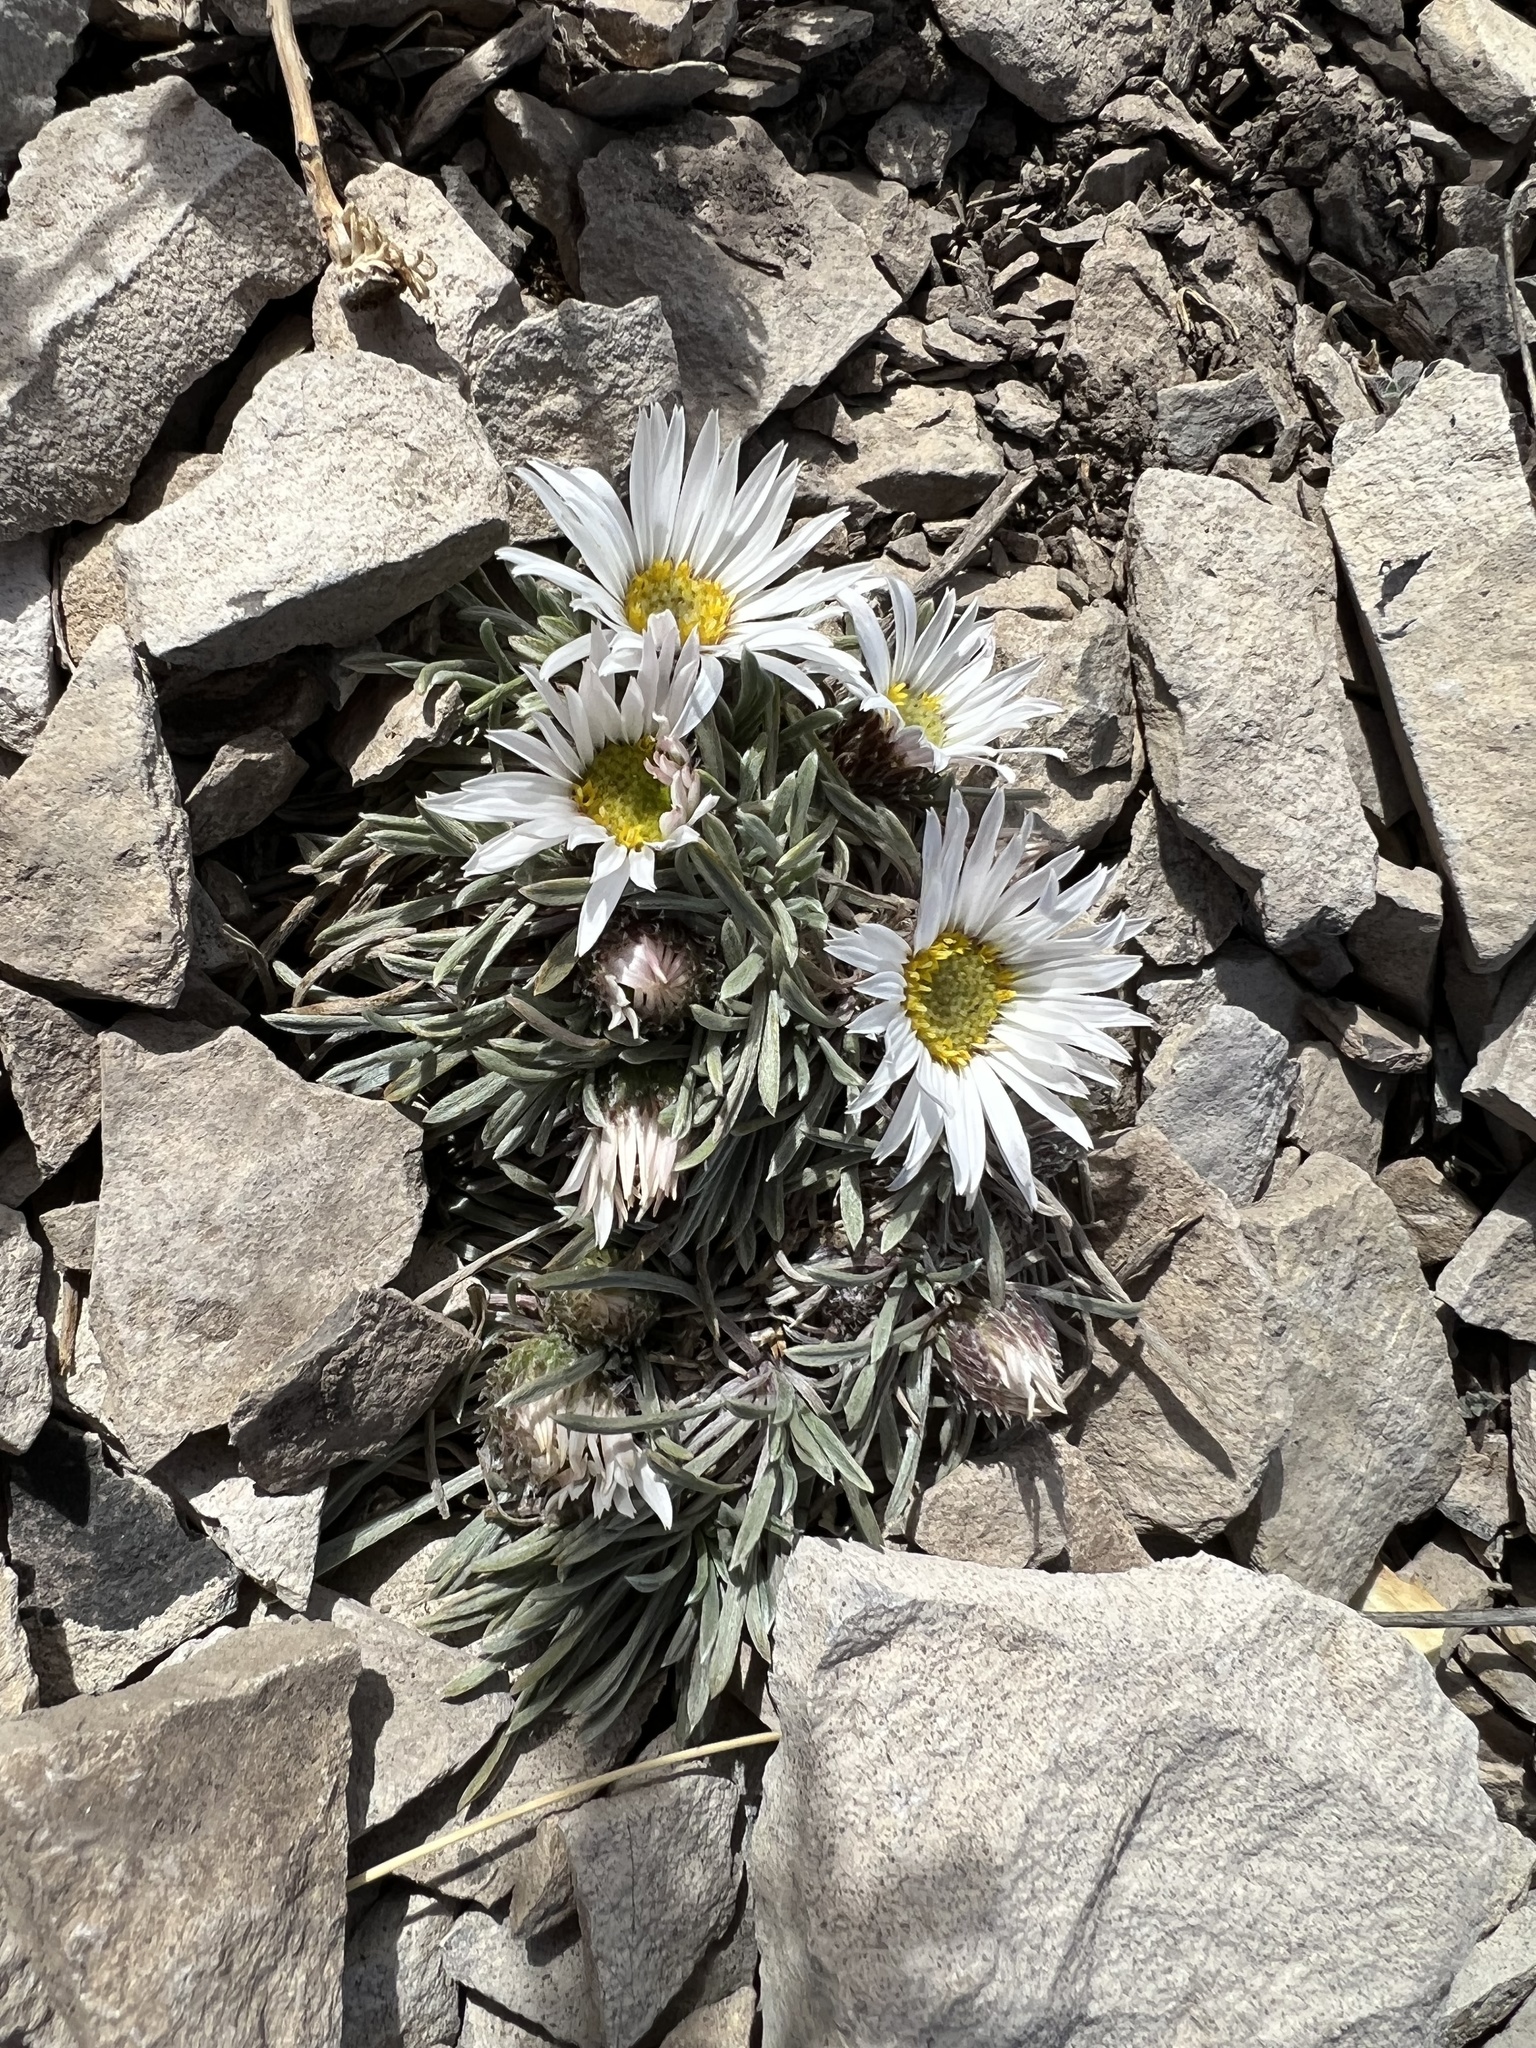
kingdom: Plantae
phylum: Tracheophyta
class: Magnoliopsida
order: Asterales
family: Asteraceae
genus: Townsendia
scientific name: Townsendia hookeri
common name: Hooker's townsend daisy
